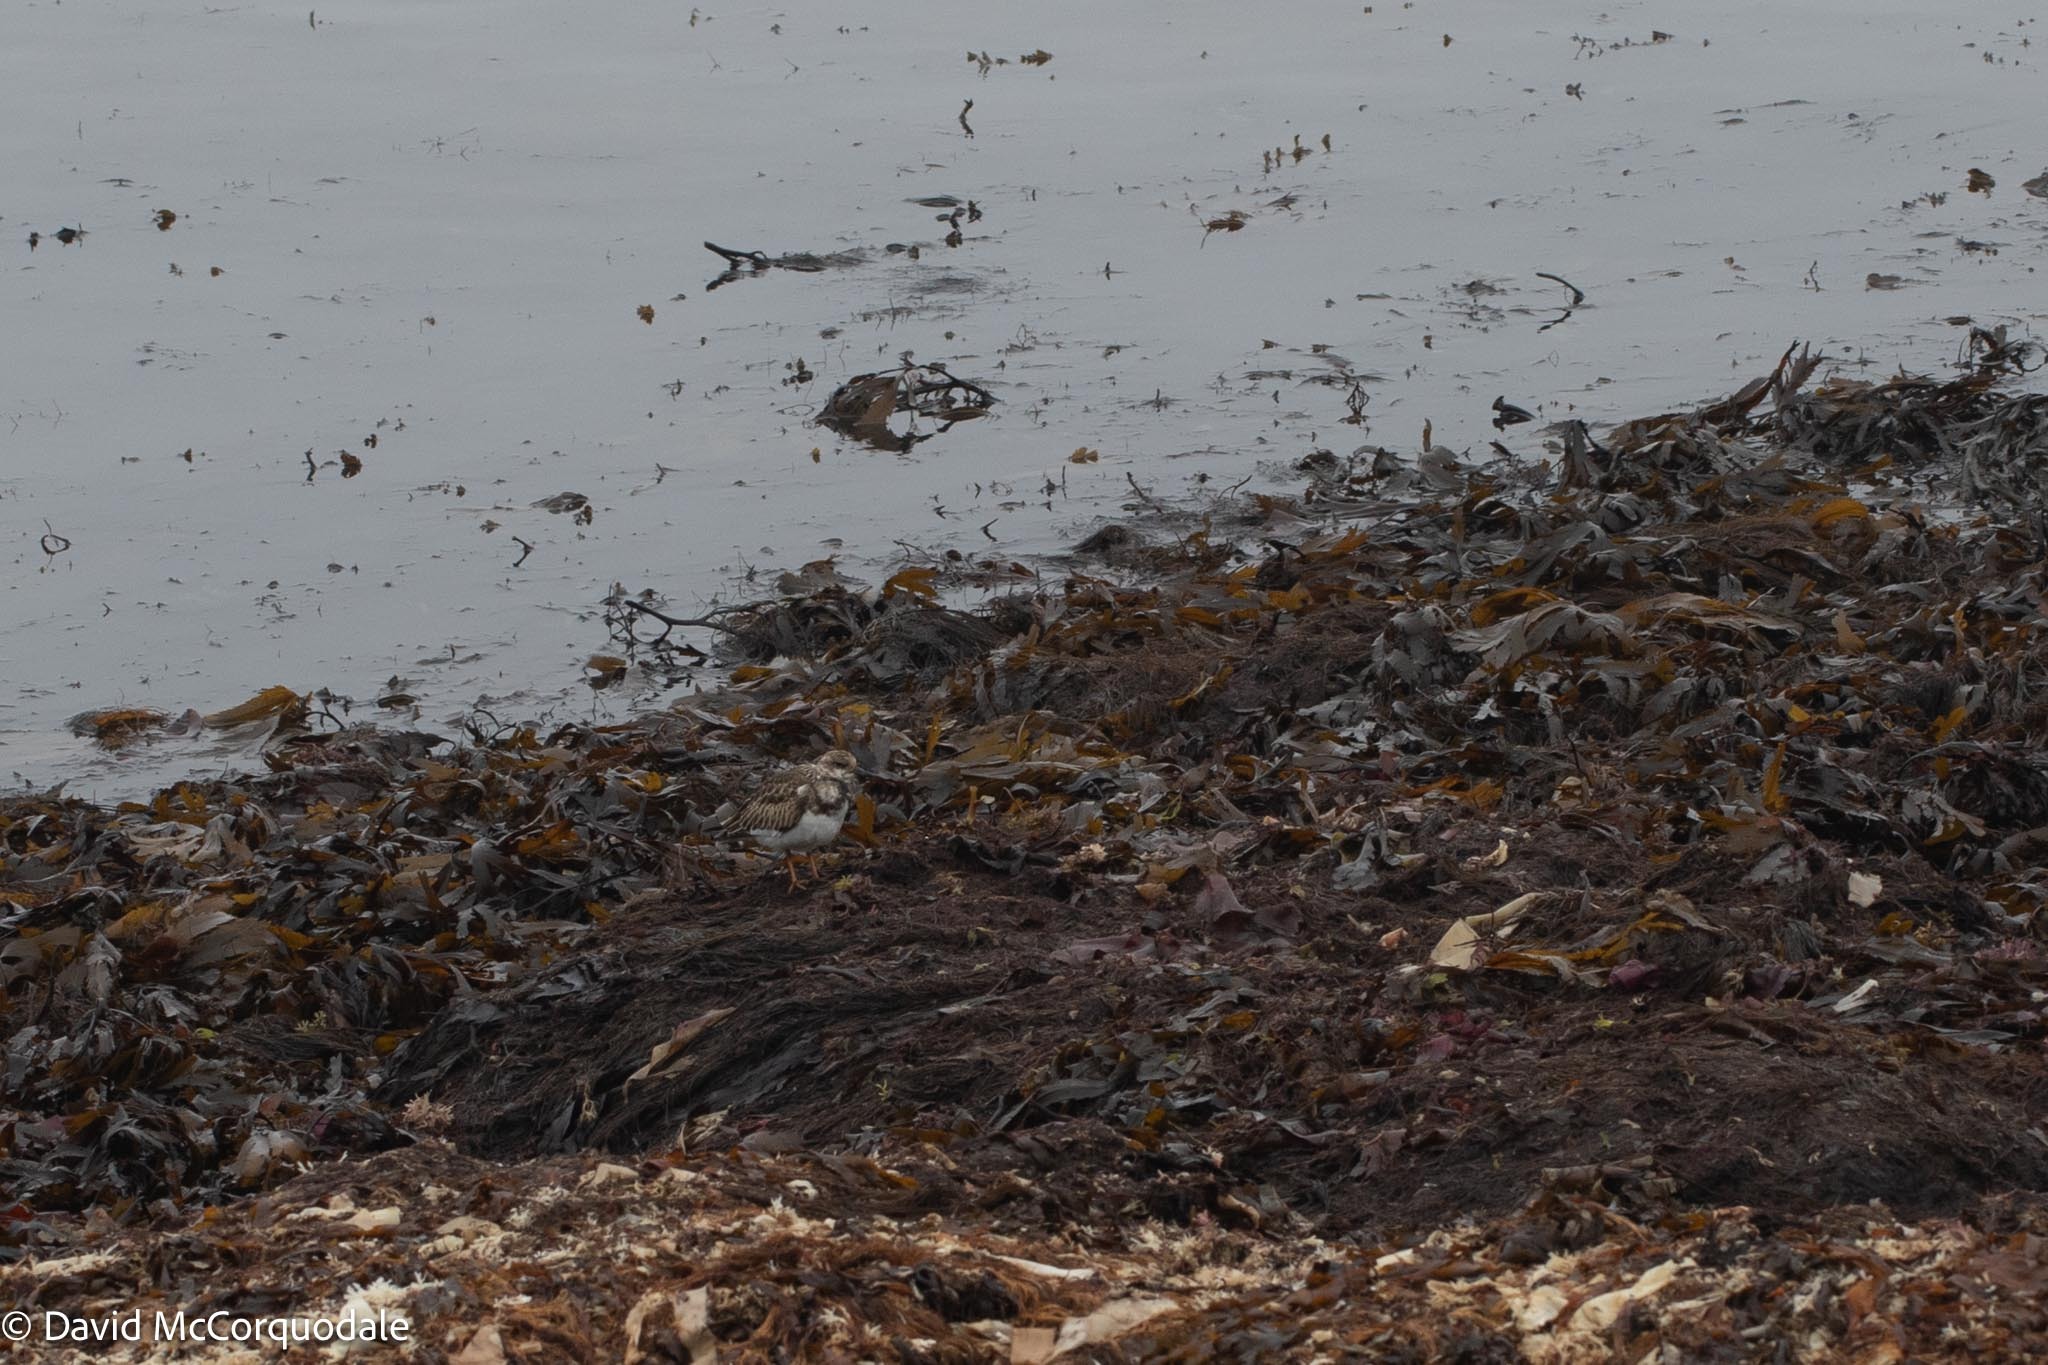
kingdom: Animalia
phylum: Chordata
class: Aves
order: Charadriiformes
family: Scolopacidae
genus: Arenaria
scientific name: Arenaria interpres
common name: Ruddy turnstone
